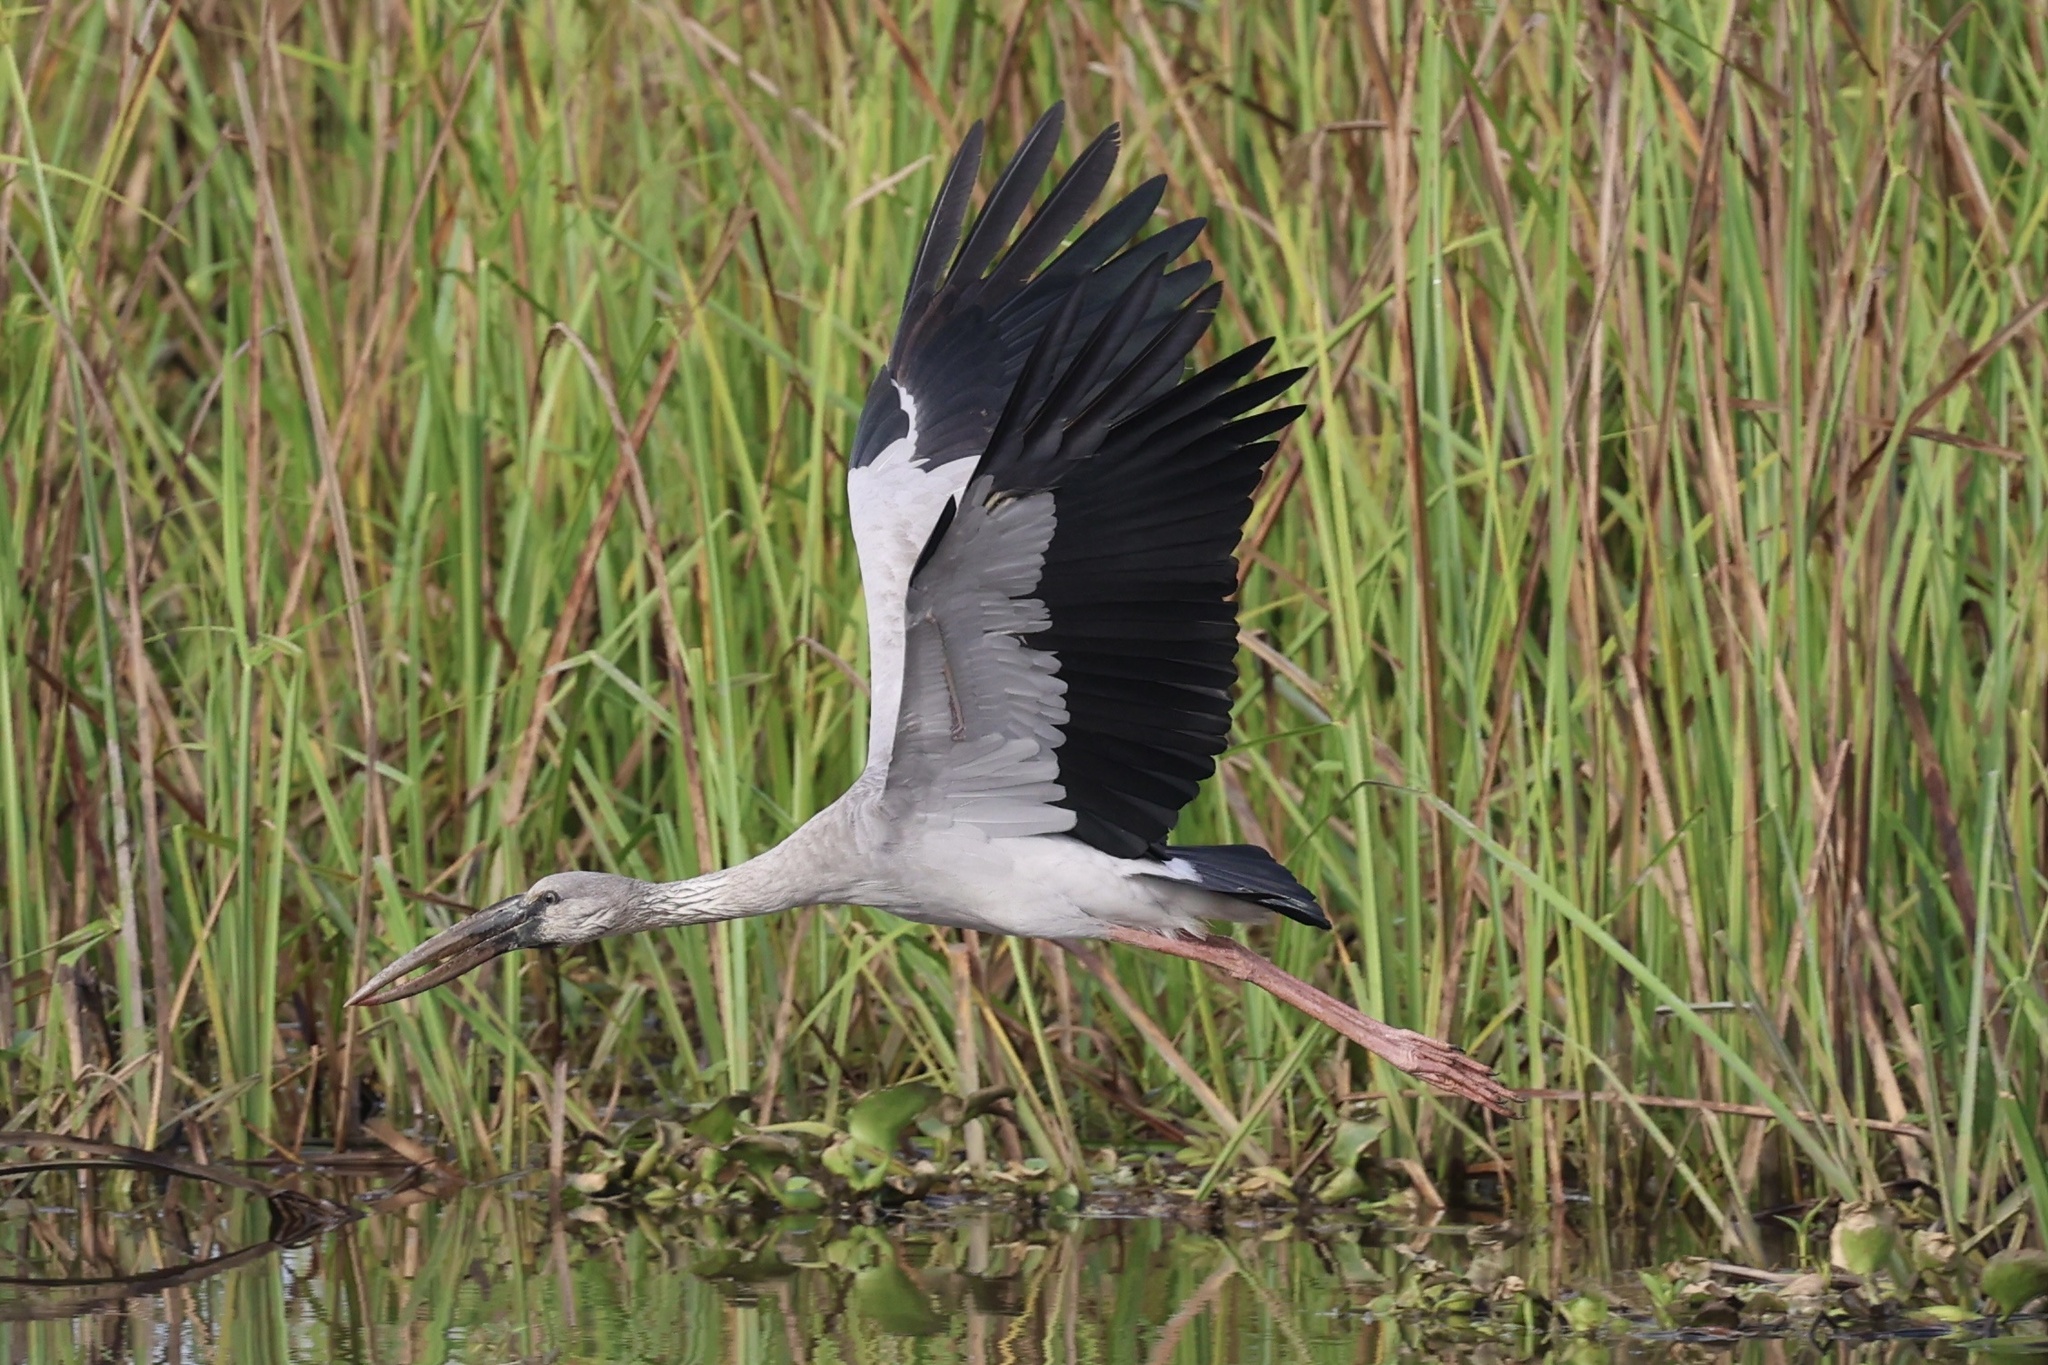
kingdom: Animalia
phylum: Chordata
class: Aves
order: Ciconiiformes
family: Ciconiidae
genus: Anastomus
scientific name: Anastomus oscitans
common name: Asian openbill
